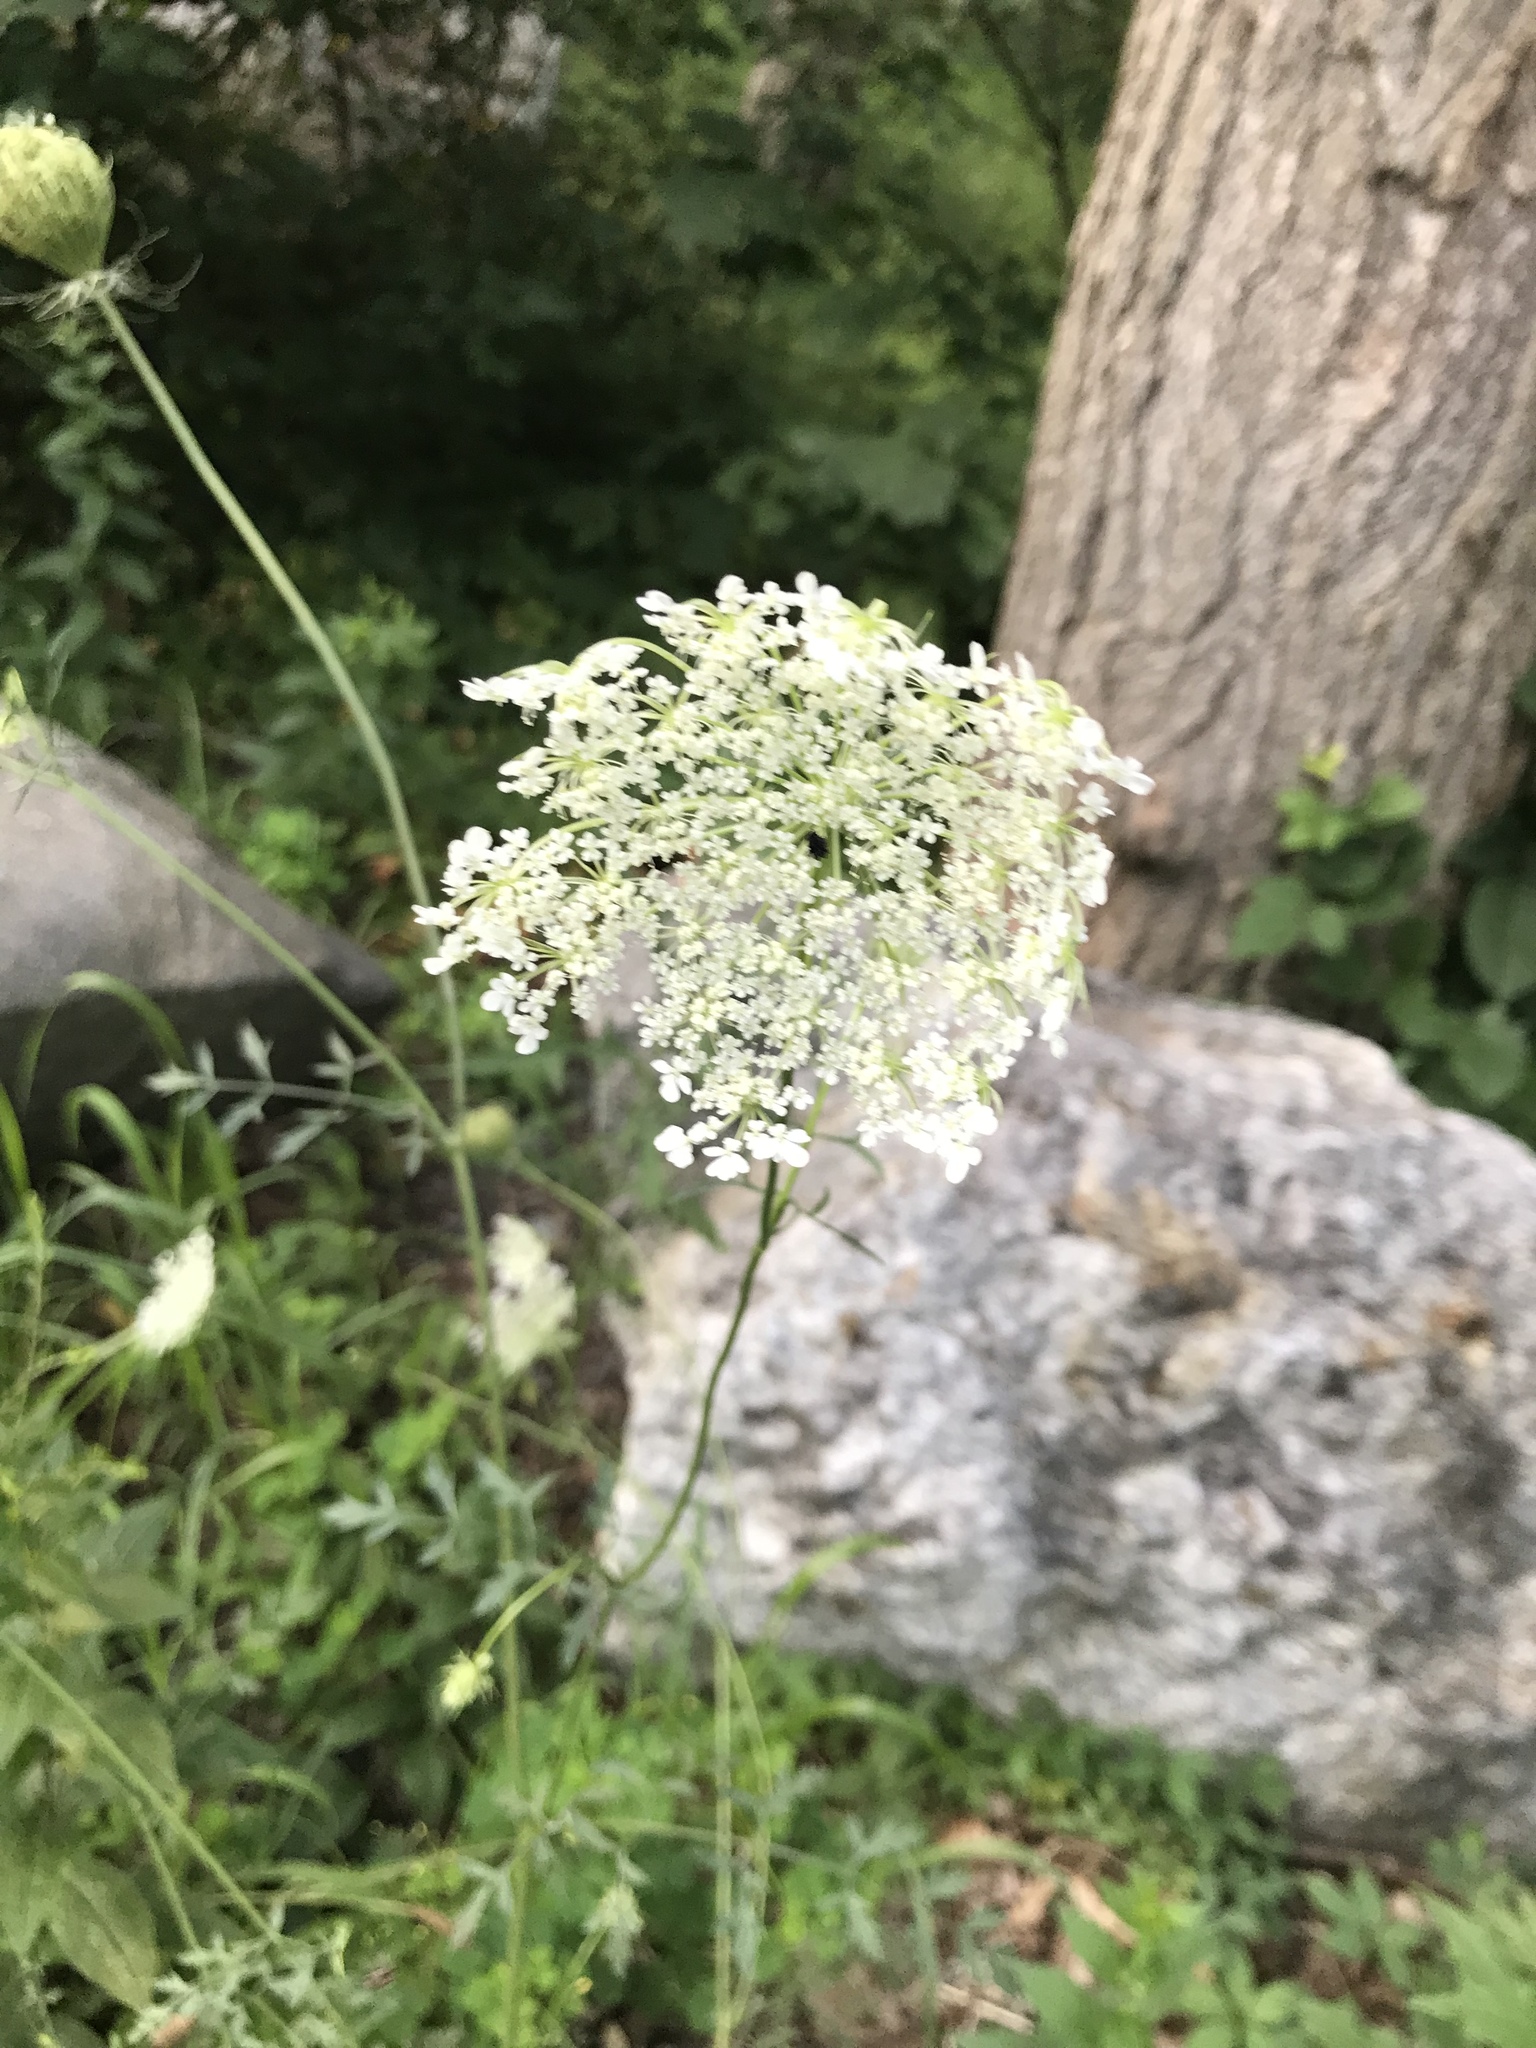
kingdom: Plantae
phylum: Tracheophyta
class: Magnoliopsida
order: Apiales
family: Apiaceae
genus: Daucus
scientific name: Daucus carota
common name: Wild carrot
